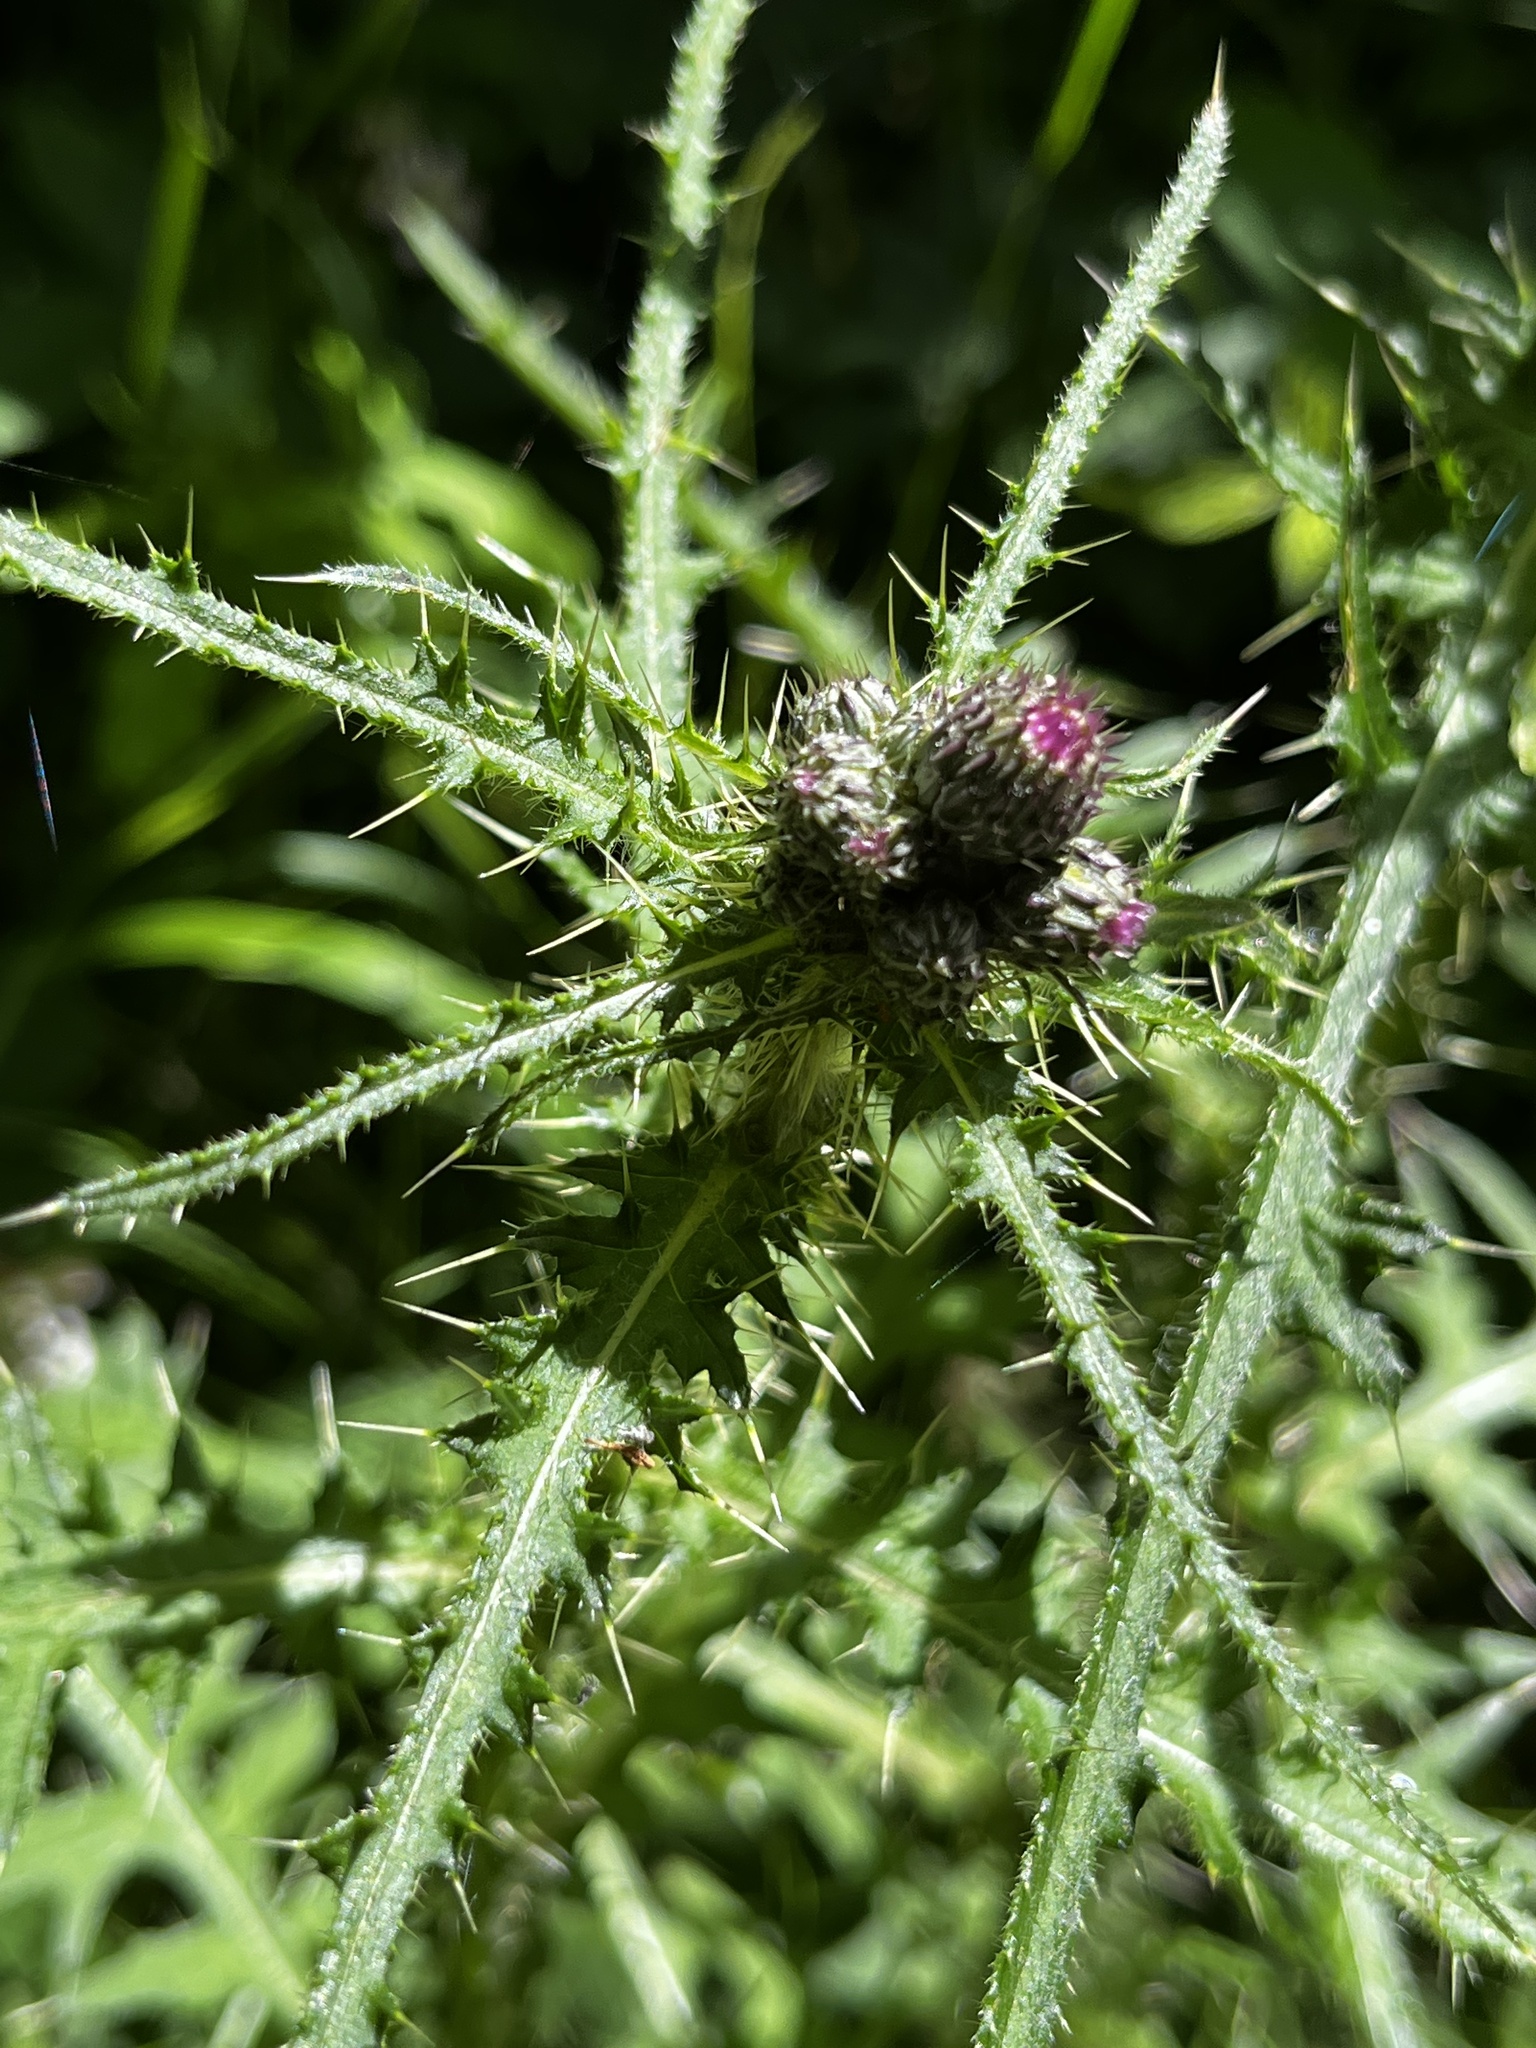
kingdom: Plantae
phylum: Tracheophyta
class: Magnoliopsida
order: Asterales
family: Asteraceae
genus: Cirsium
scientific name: Cirsium palustre
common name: Marsh thistle
